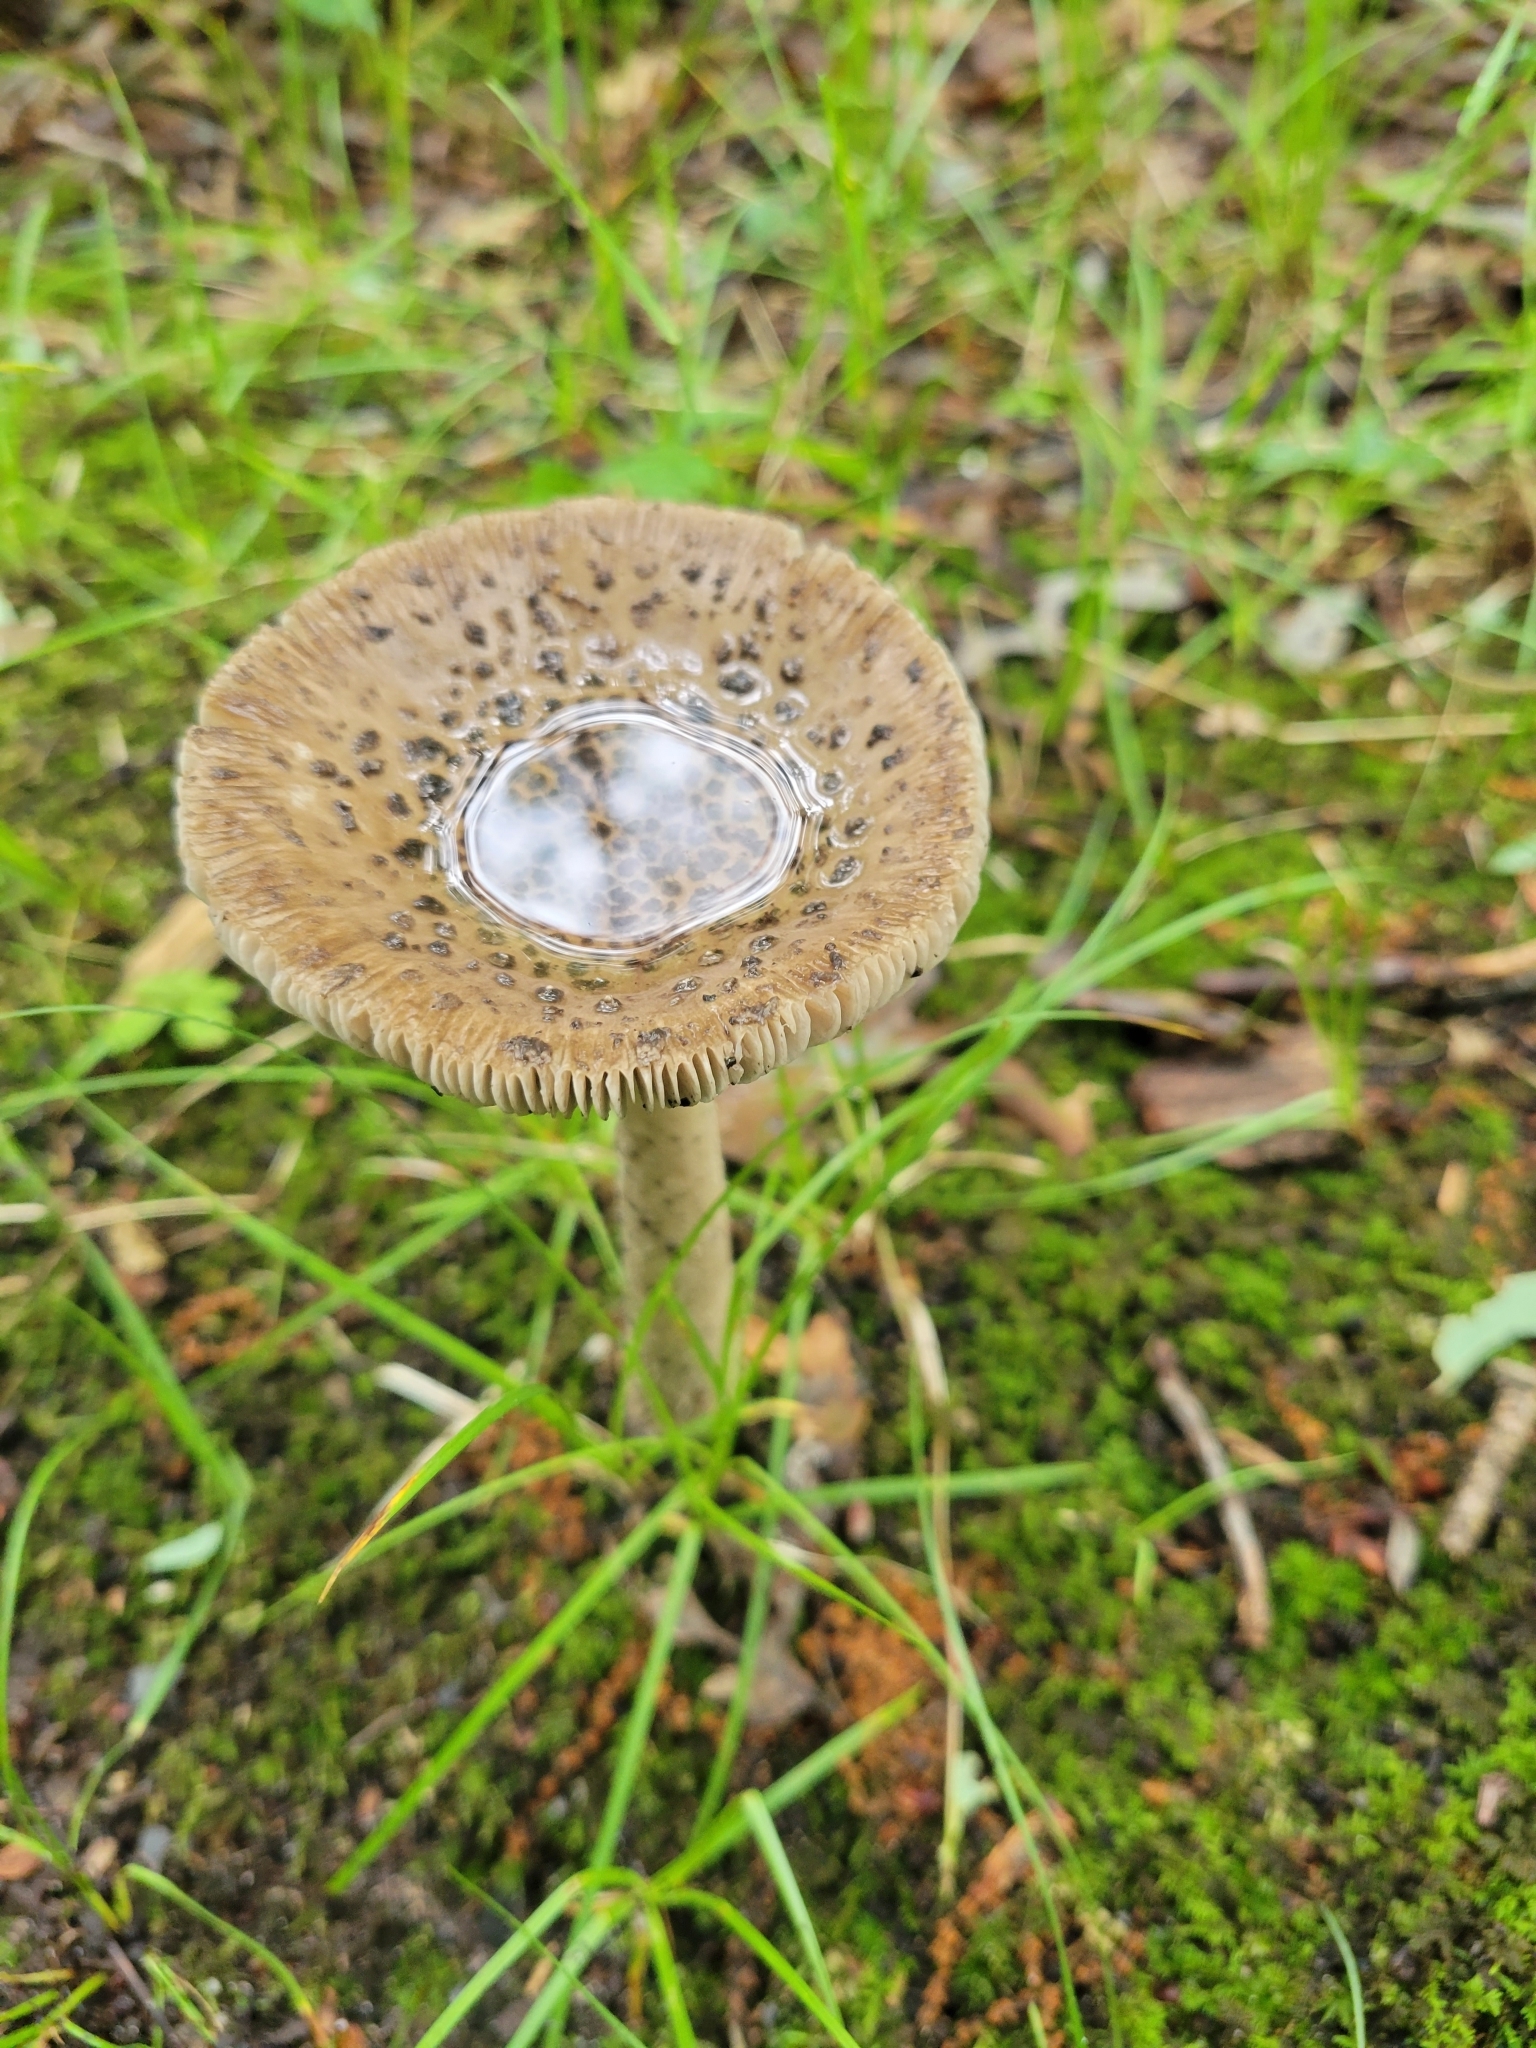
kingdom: Fungi
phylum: Basidiomycota
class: Agaricomycetes
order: Agaricales
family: Amanitaceae
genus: Amanita
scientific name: Amanita rhacopus
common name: Shaggy legged ringless amanita
